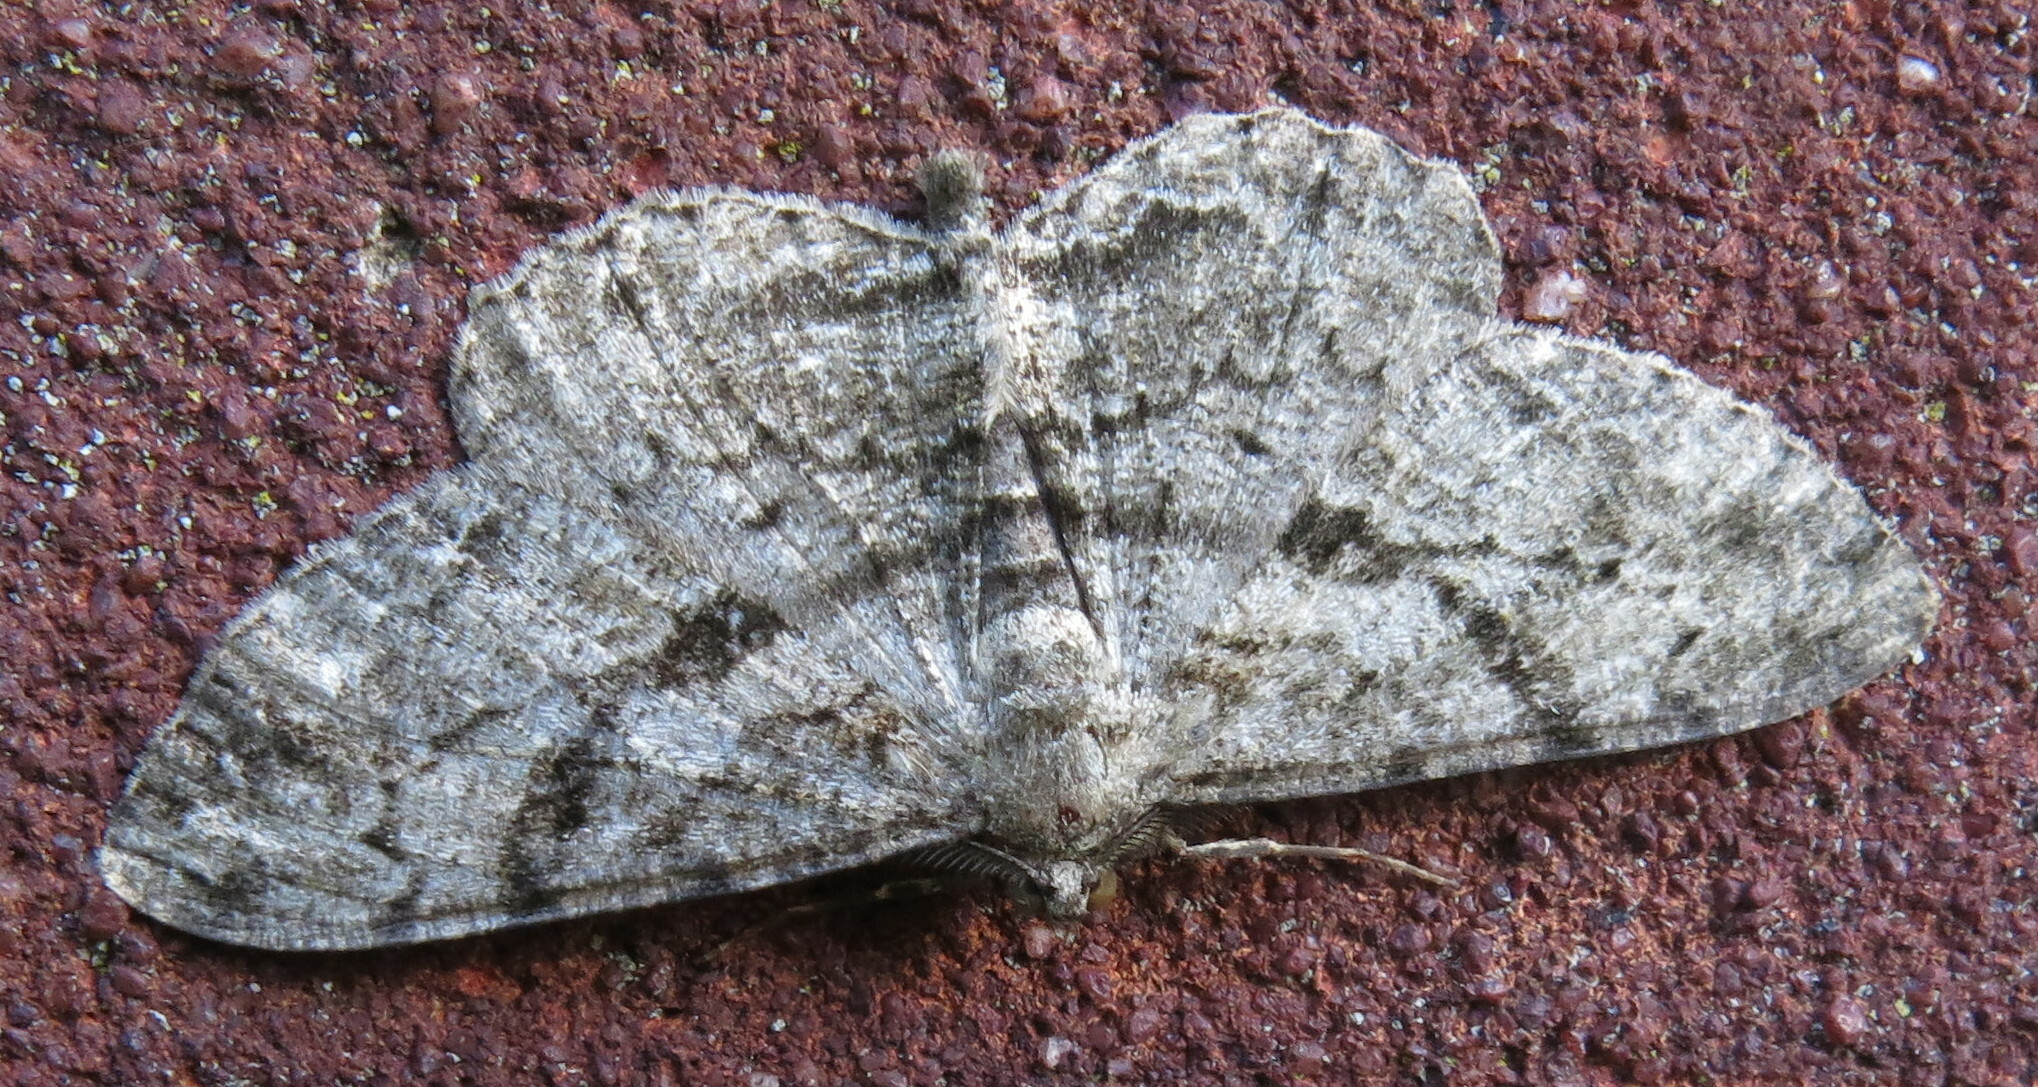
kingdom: Animalia
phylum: Arthropoda
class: Insecta
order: Lepidoptera
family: Geometridae
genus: Peribatodes
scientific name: Peribatodes rhomboidaria
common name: Willow beauty
